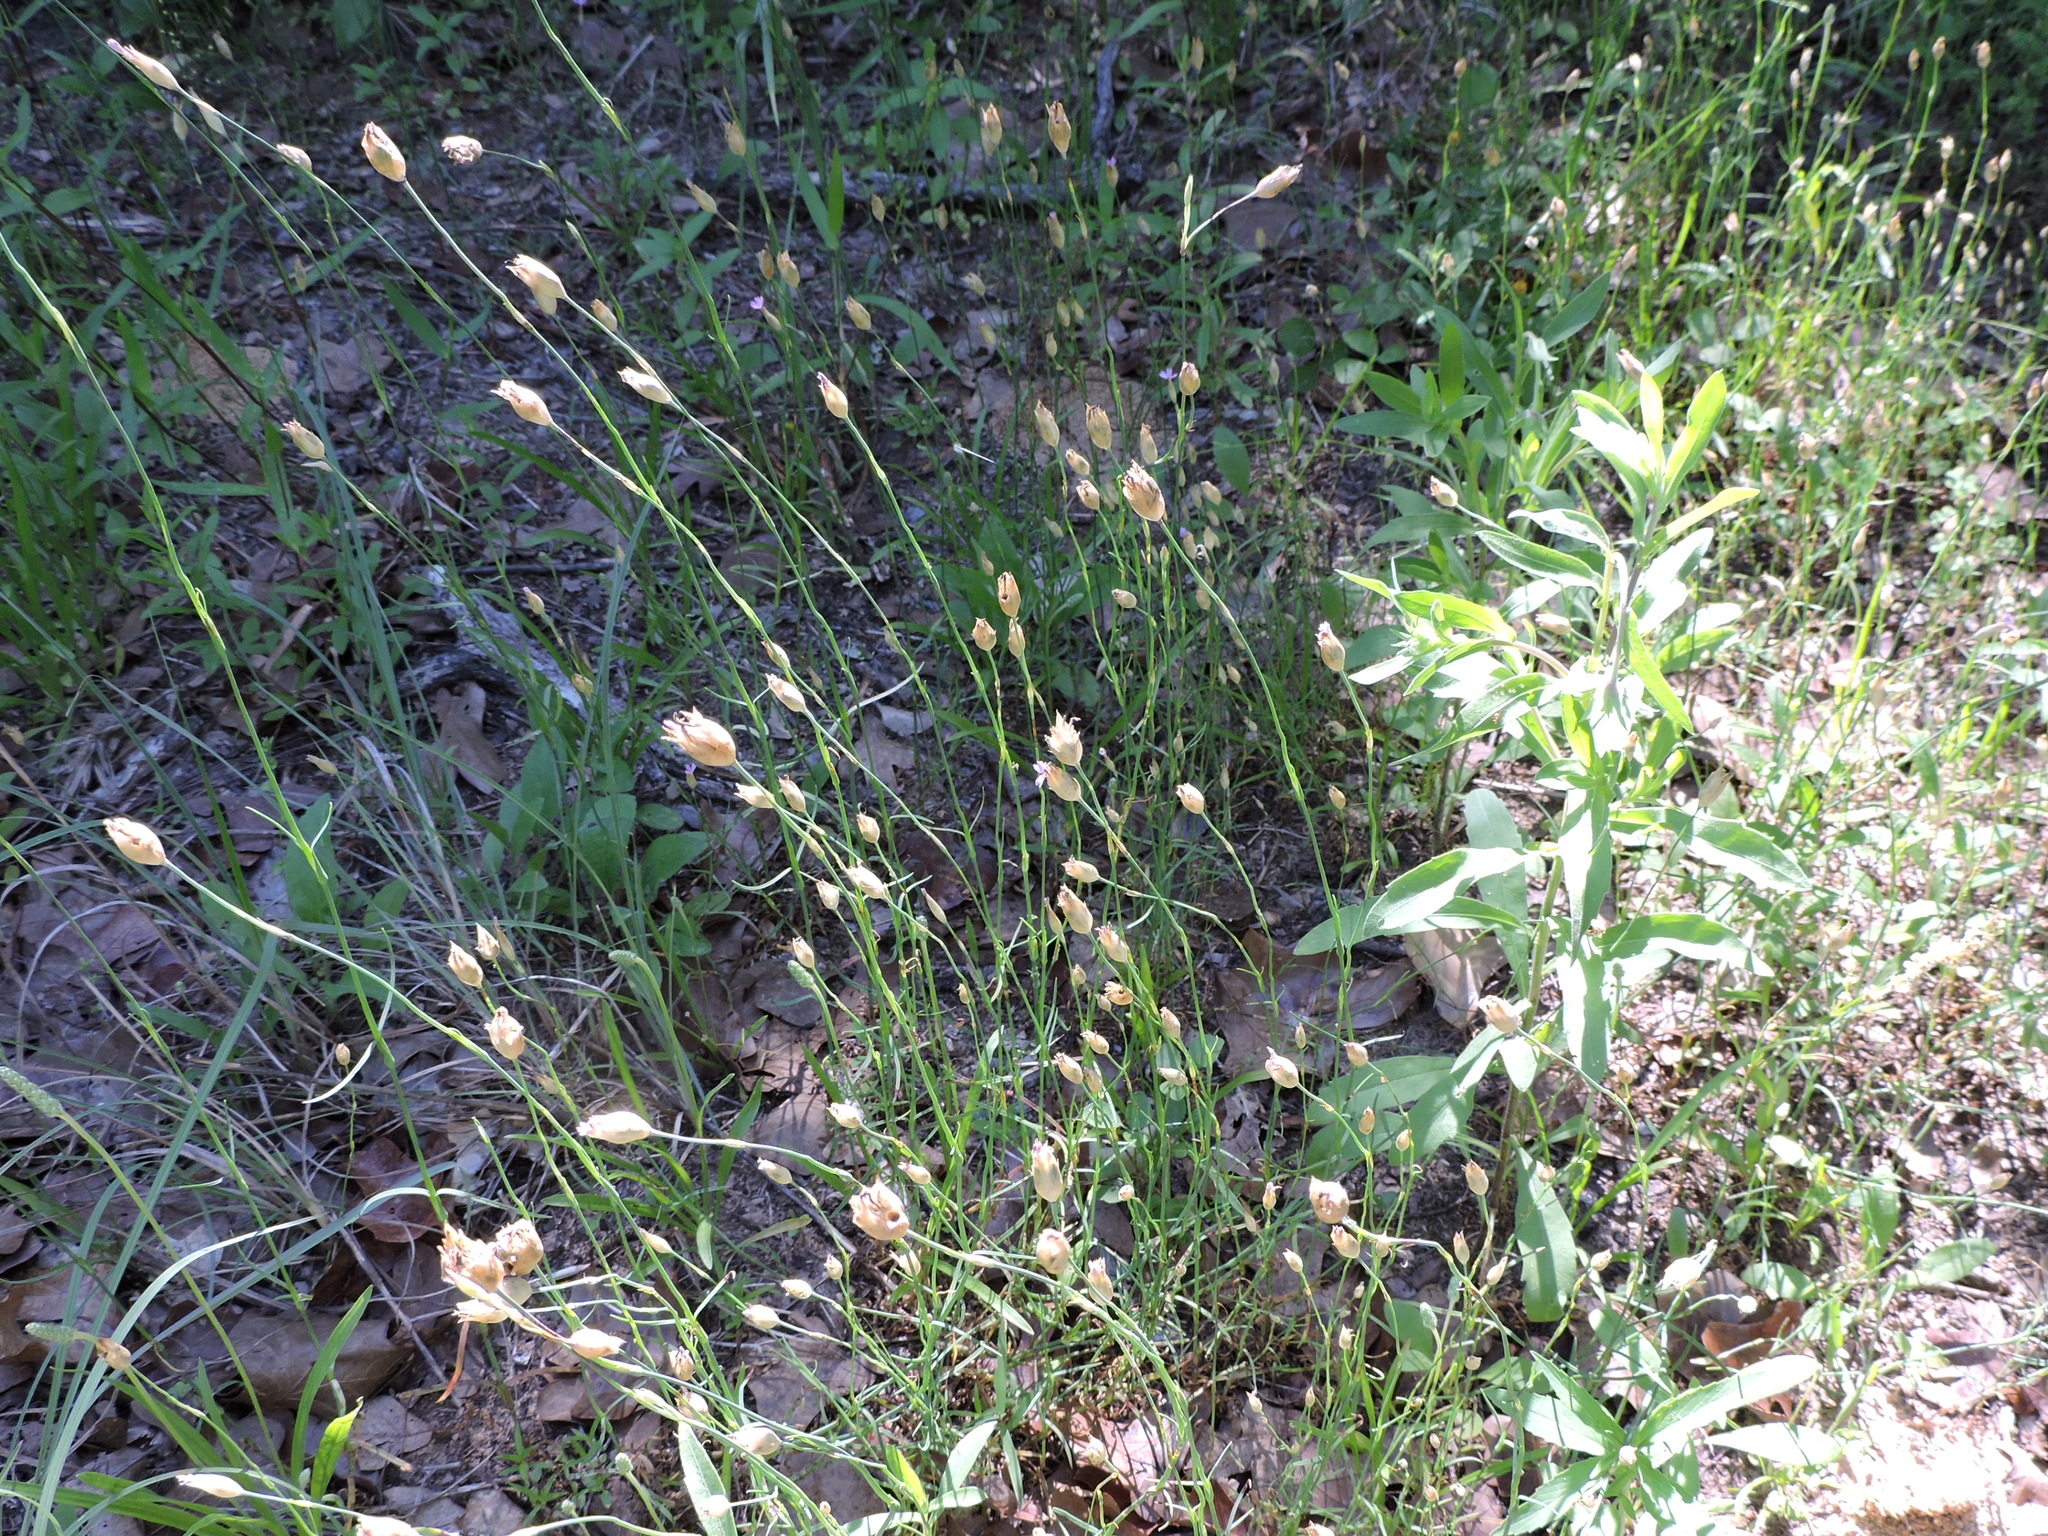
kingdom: Plantae
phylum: Tracheophyta
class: Magnoliopsida
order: Caryophyllales
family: Caryophyllaceae
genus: Petrorhagia
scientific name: Petrorhagia dubia
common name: Hairypink
